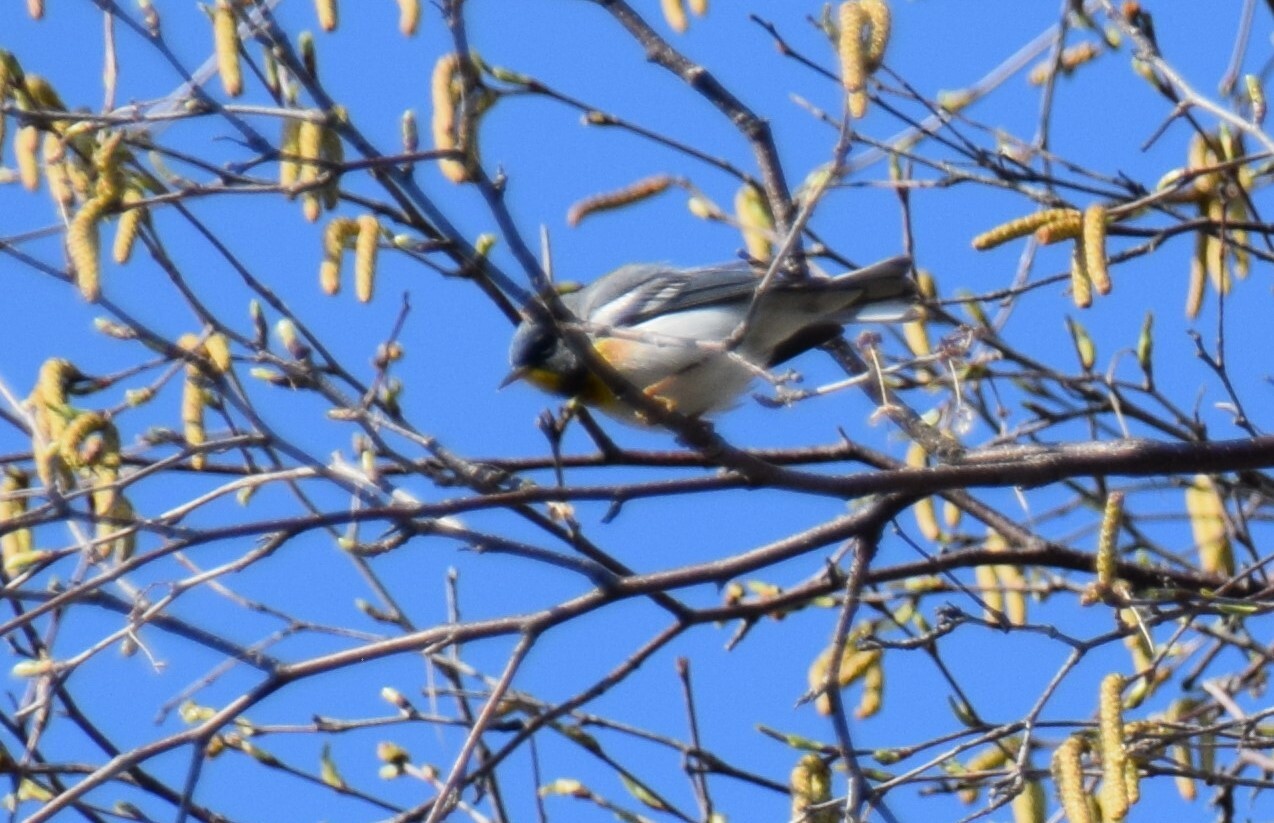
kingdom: Animalia
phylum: Chordata
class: Aves
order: Passeriformes
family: Parulidae
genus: Setophaga
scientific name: Setophaga americana
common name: Northern parula
